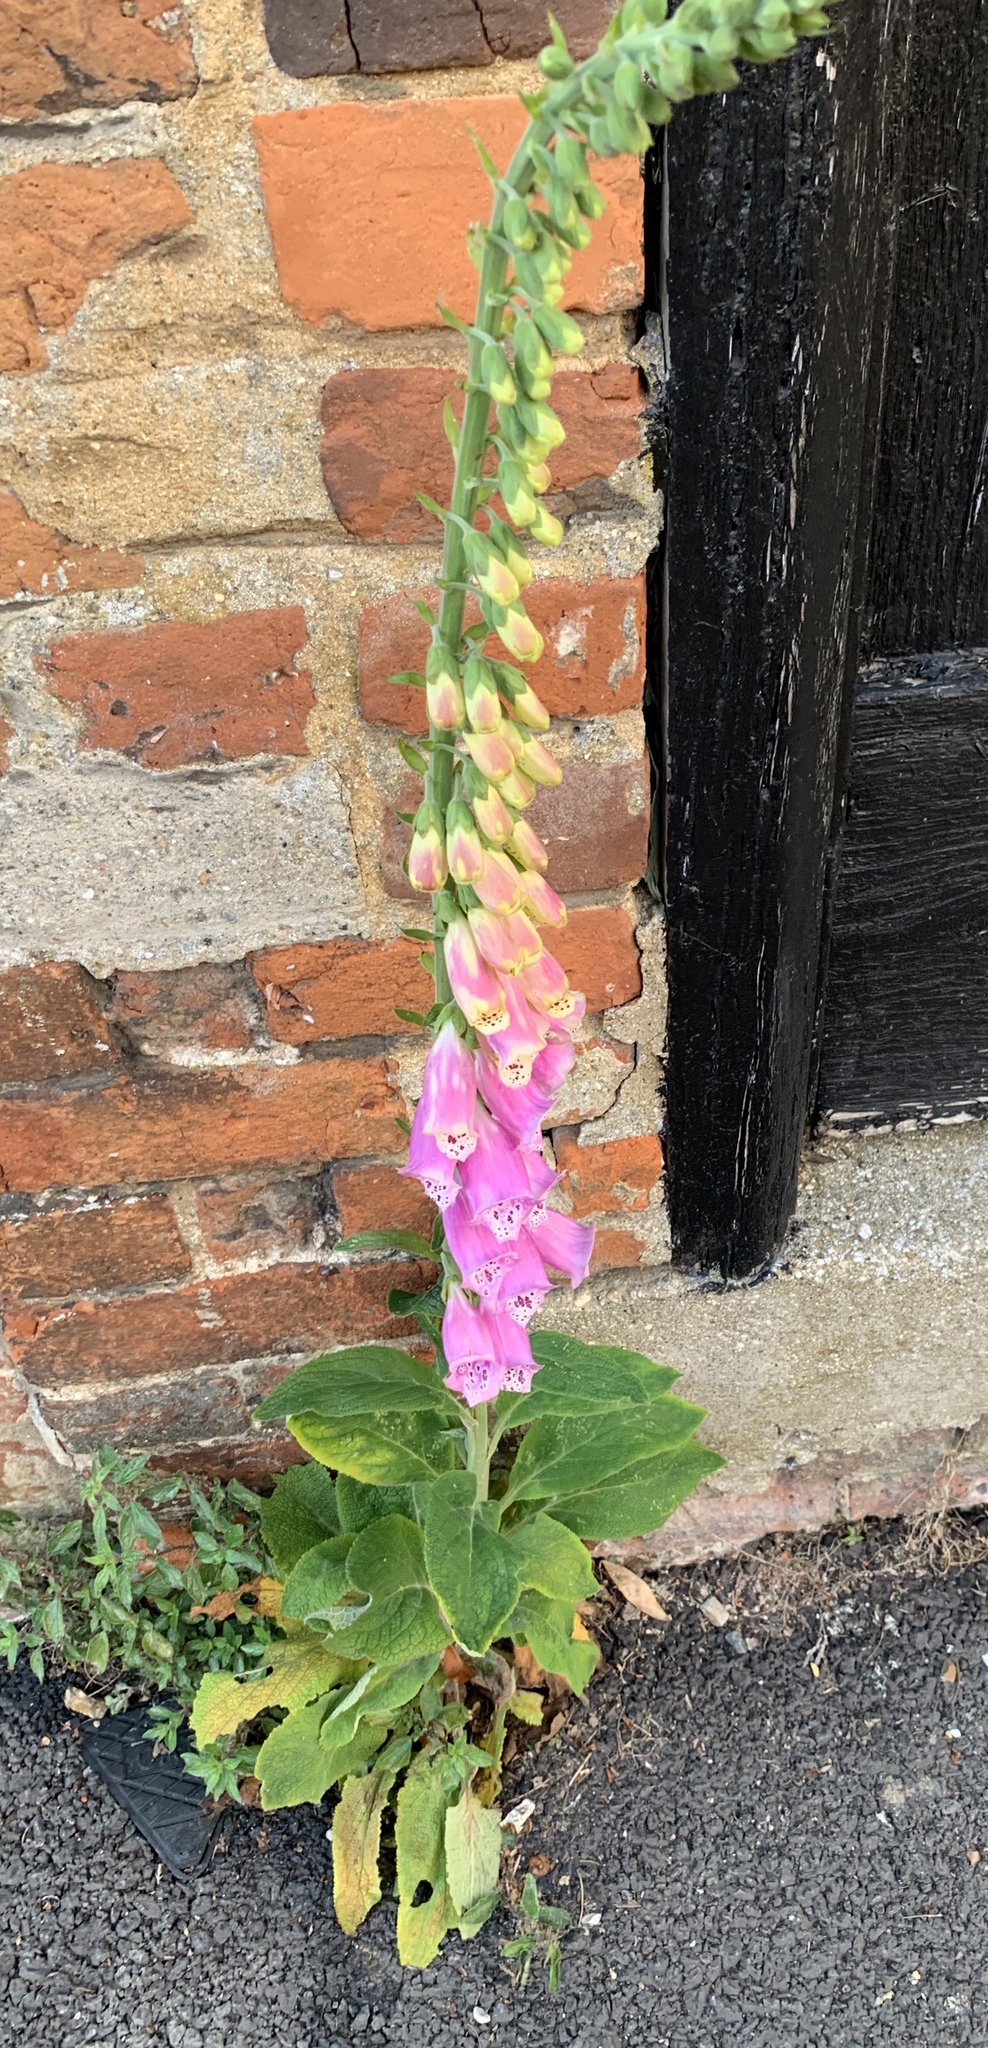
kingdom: Plantae
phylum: Tracheophyta
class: Magnoliopsida
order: Lamiales
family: Plantaginaceae
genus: Digitalis
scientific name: Digitalis purpurea
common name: Foxglove
